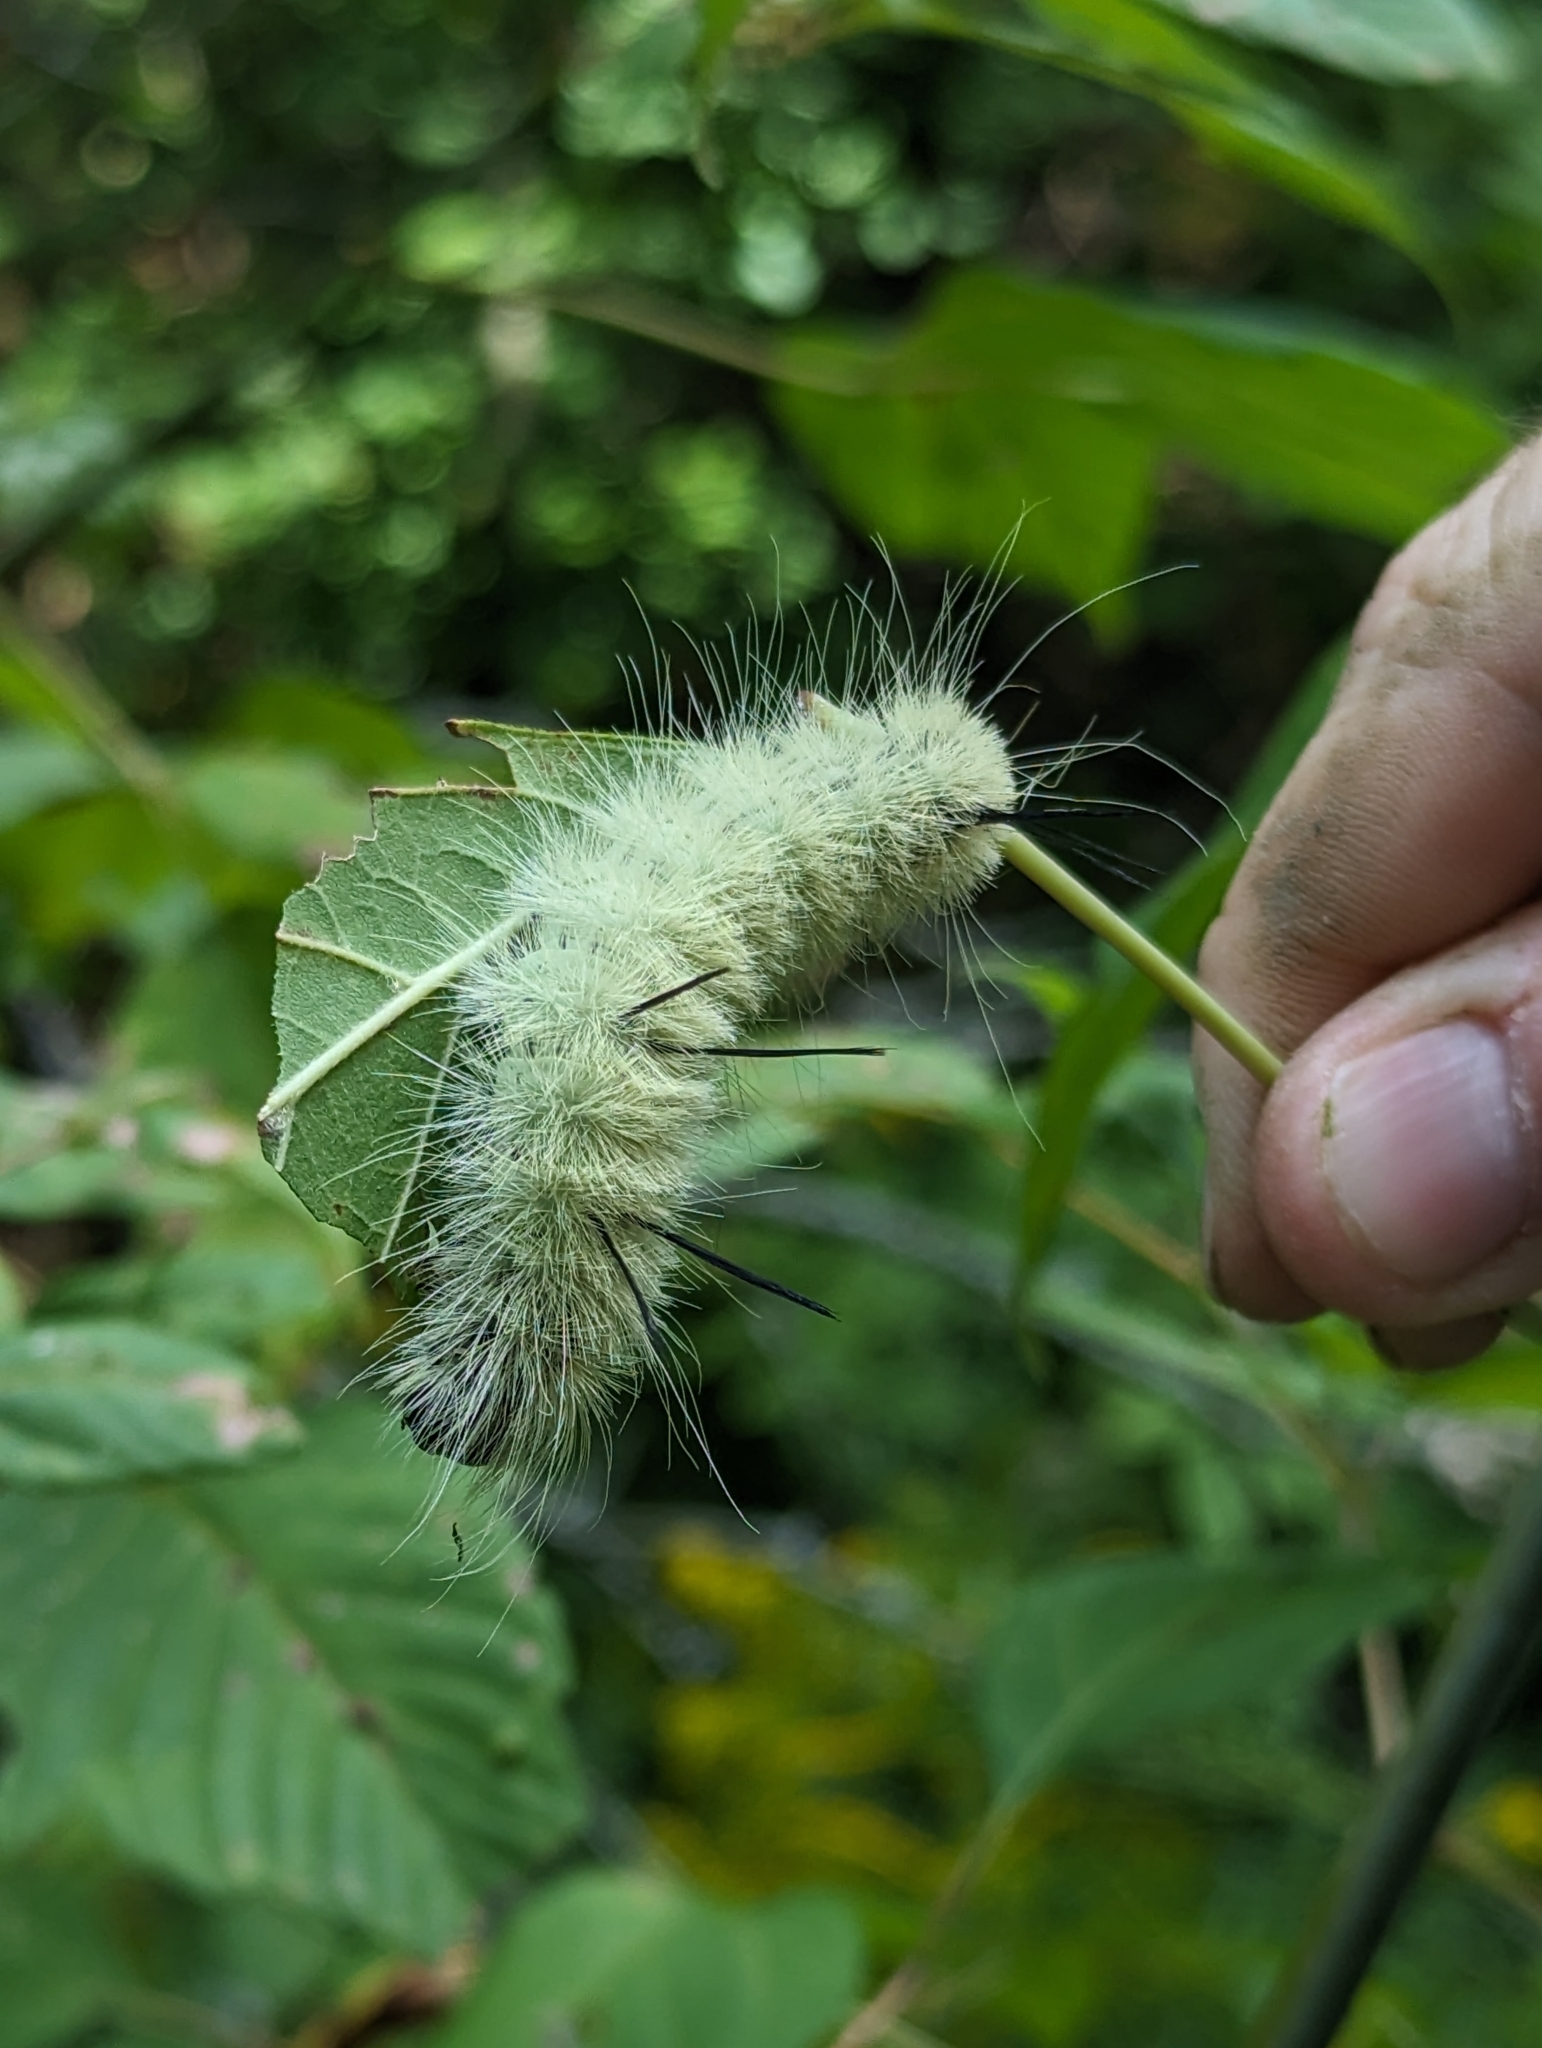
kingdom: Animalia
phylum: Arthropoda
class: Insecta
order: Lepidoptera
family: Noctuidae
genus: Acronicta
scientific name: Acronicta americana
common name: American dagger
